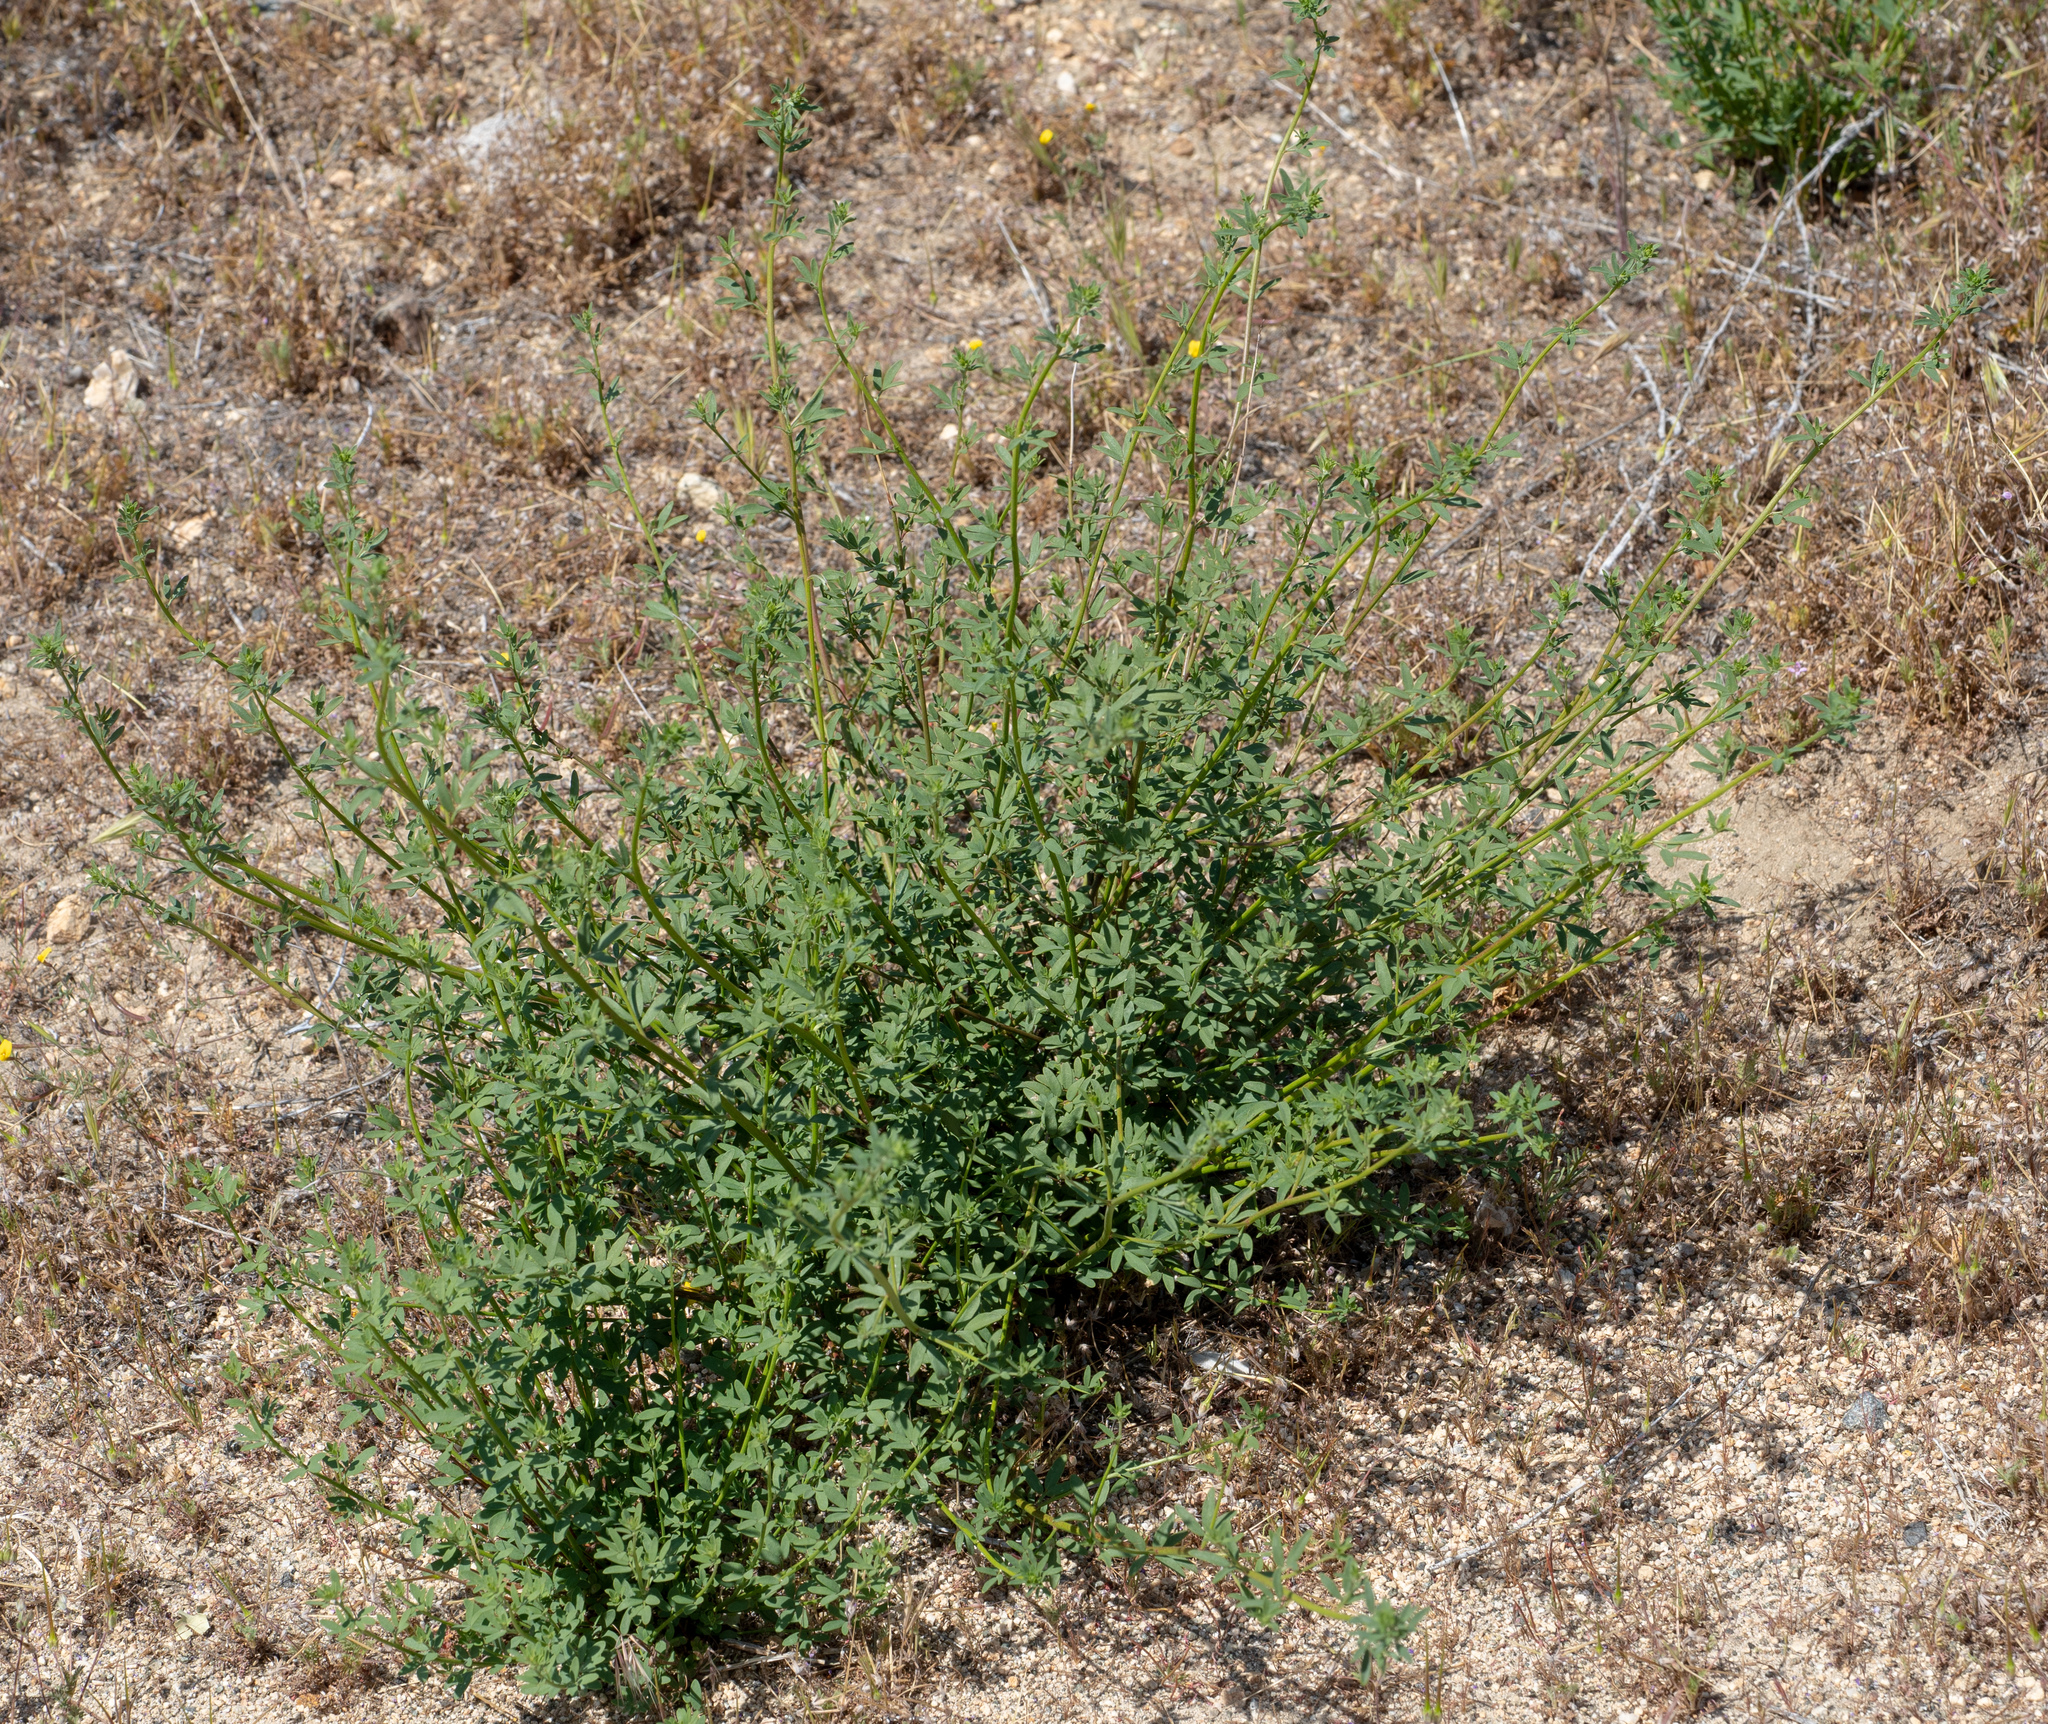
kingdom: Plantae
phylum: Tracheophyta
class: Magnoliopsida
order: Fabales
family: Fabaceae
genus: Acmispon
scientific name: Acmispon glaber
